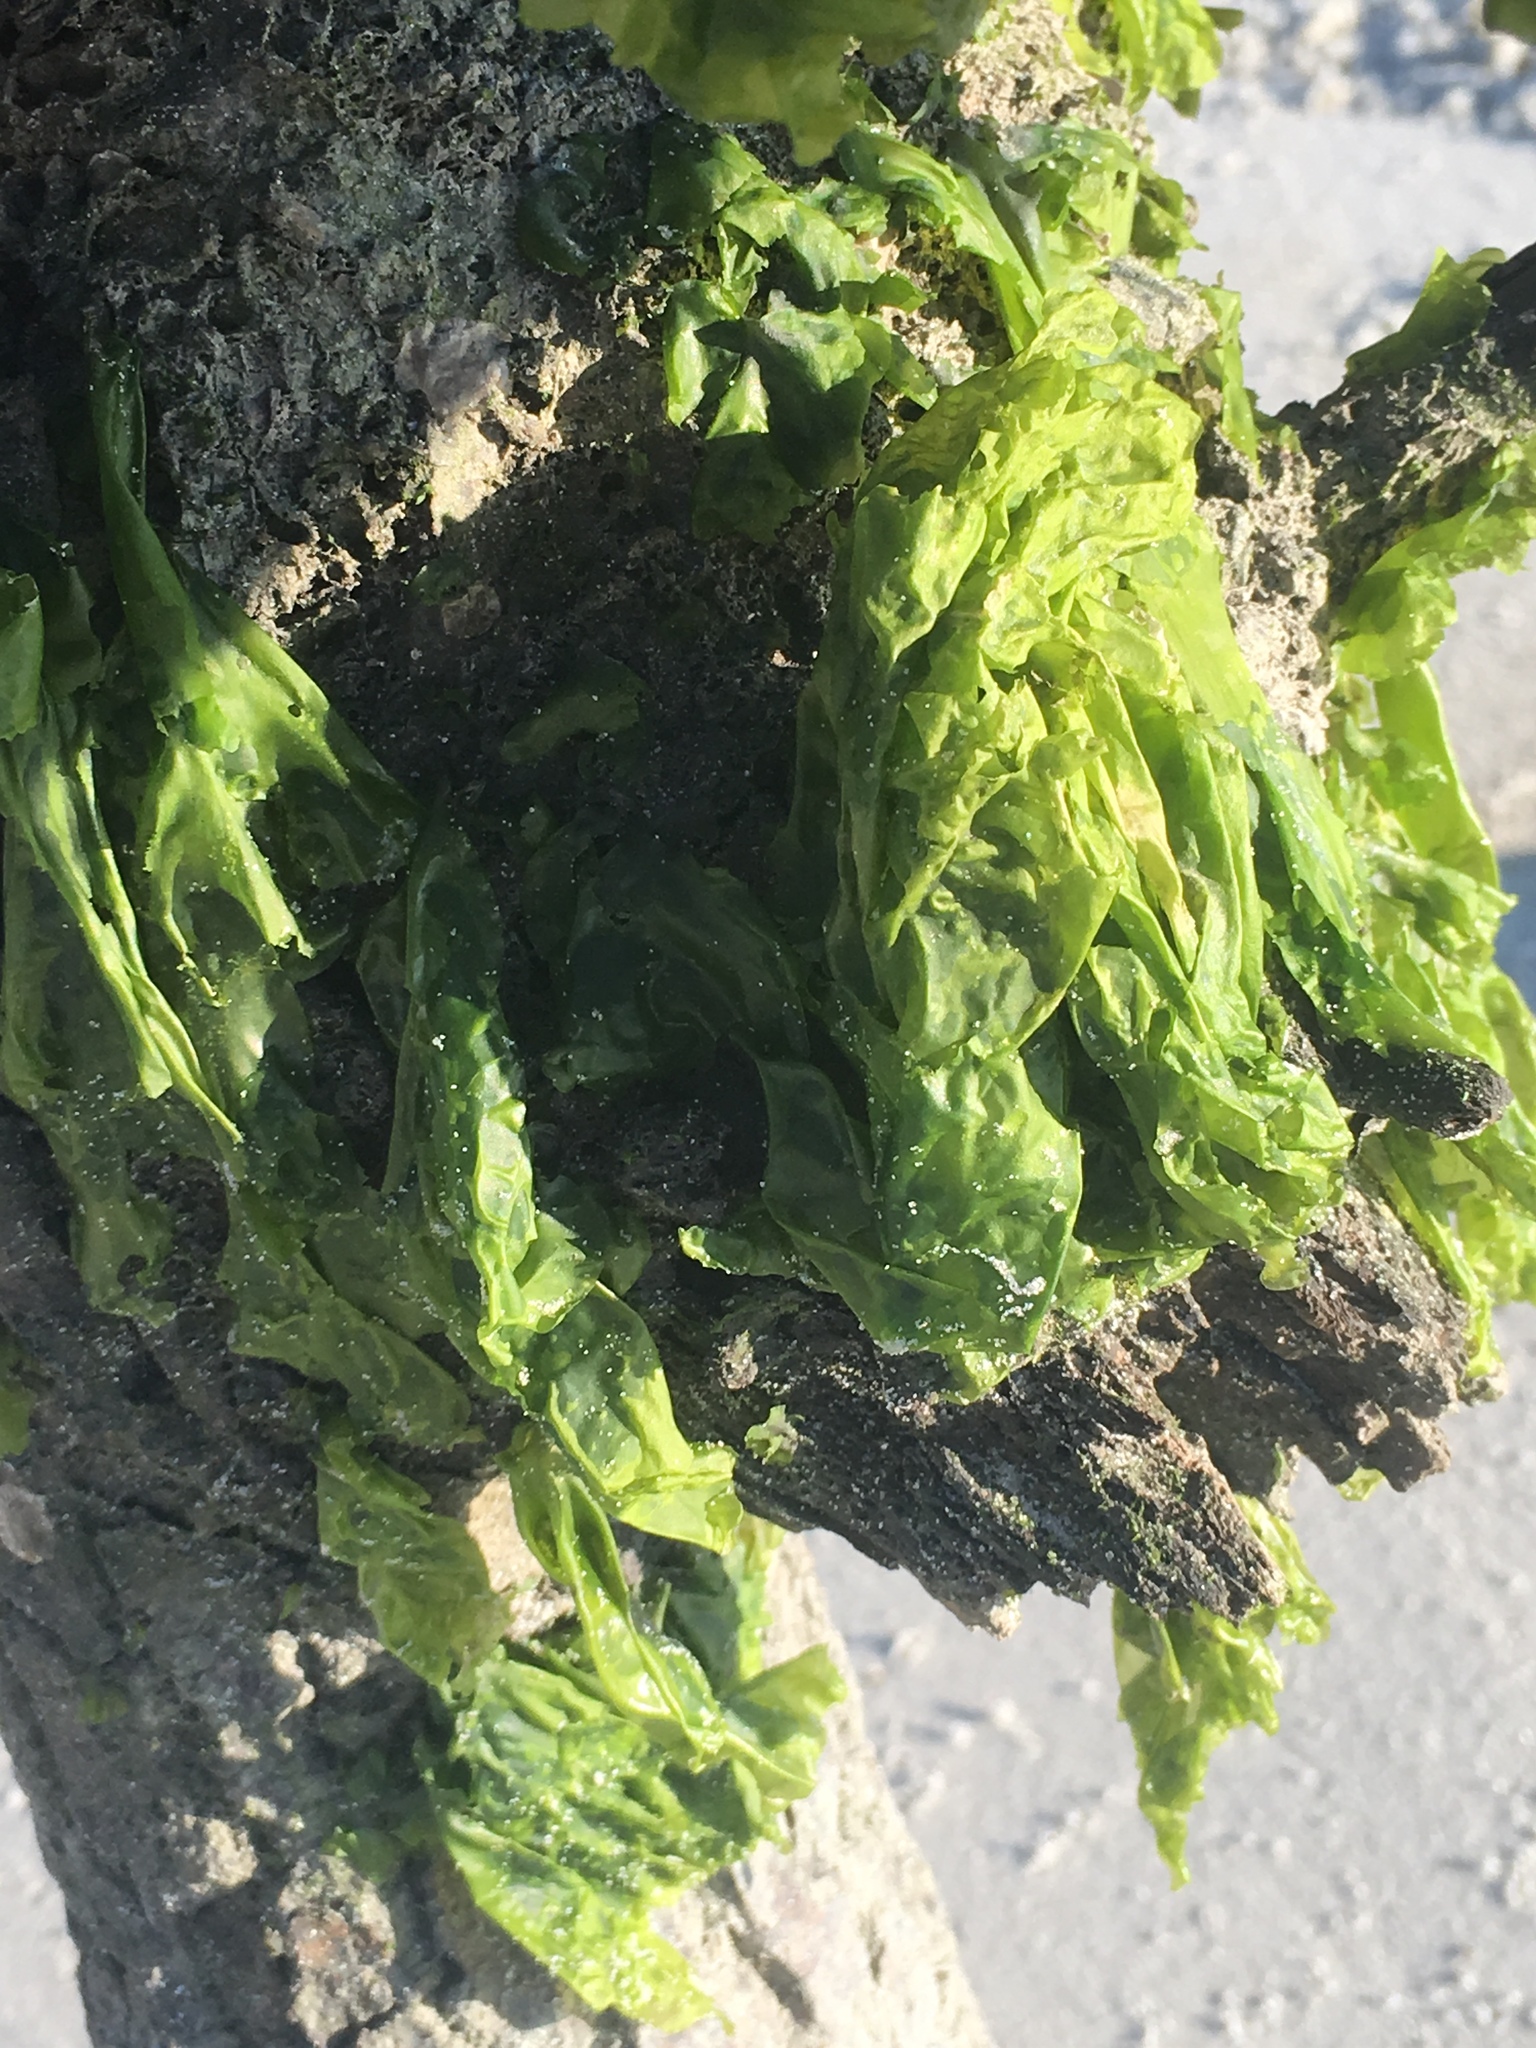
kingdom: Plantae
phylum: Chlorophyta
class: Ulvophyceae
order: Ulvales
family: Ulvaceae
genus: Ulva
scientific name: Ulva lactuca
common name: Sea lettuce
